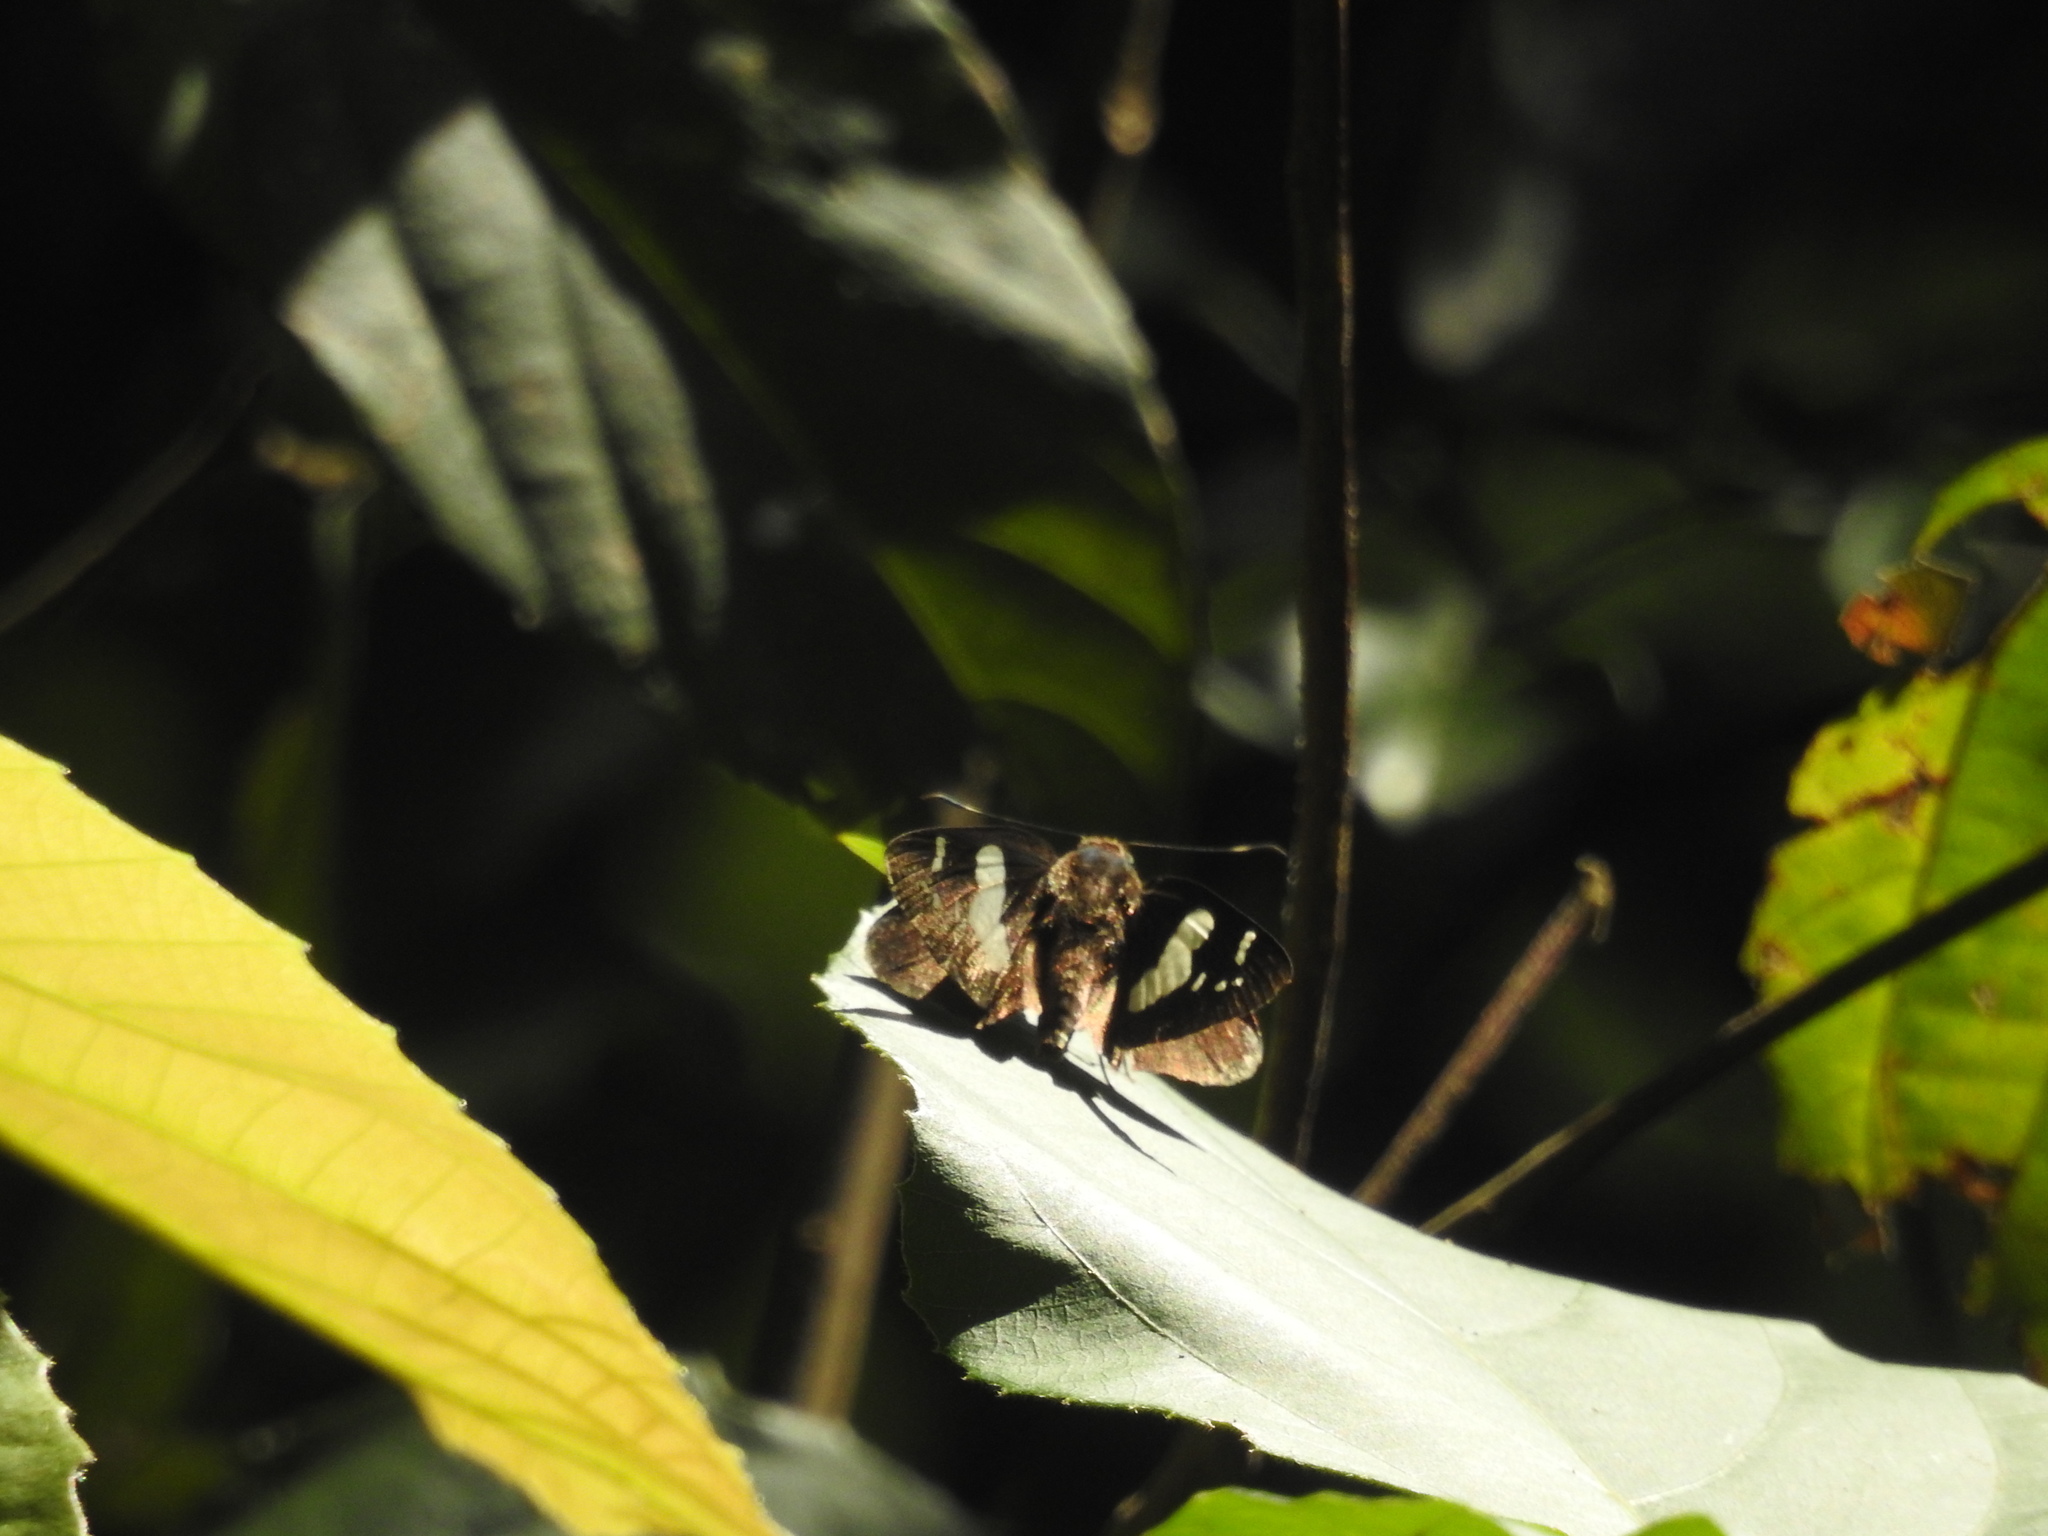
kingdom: Animalia
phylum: Arthropoda
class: Insecta
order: Lepidoptera
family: Hesperiidae
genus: Notocrypta
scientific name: Notocrypta curvifascia
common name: Restricted demon
